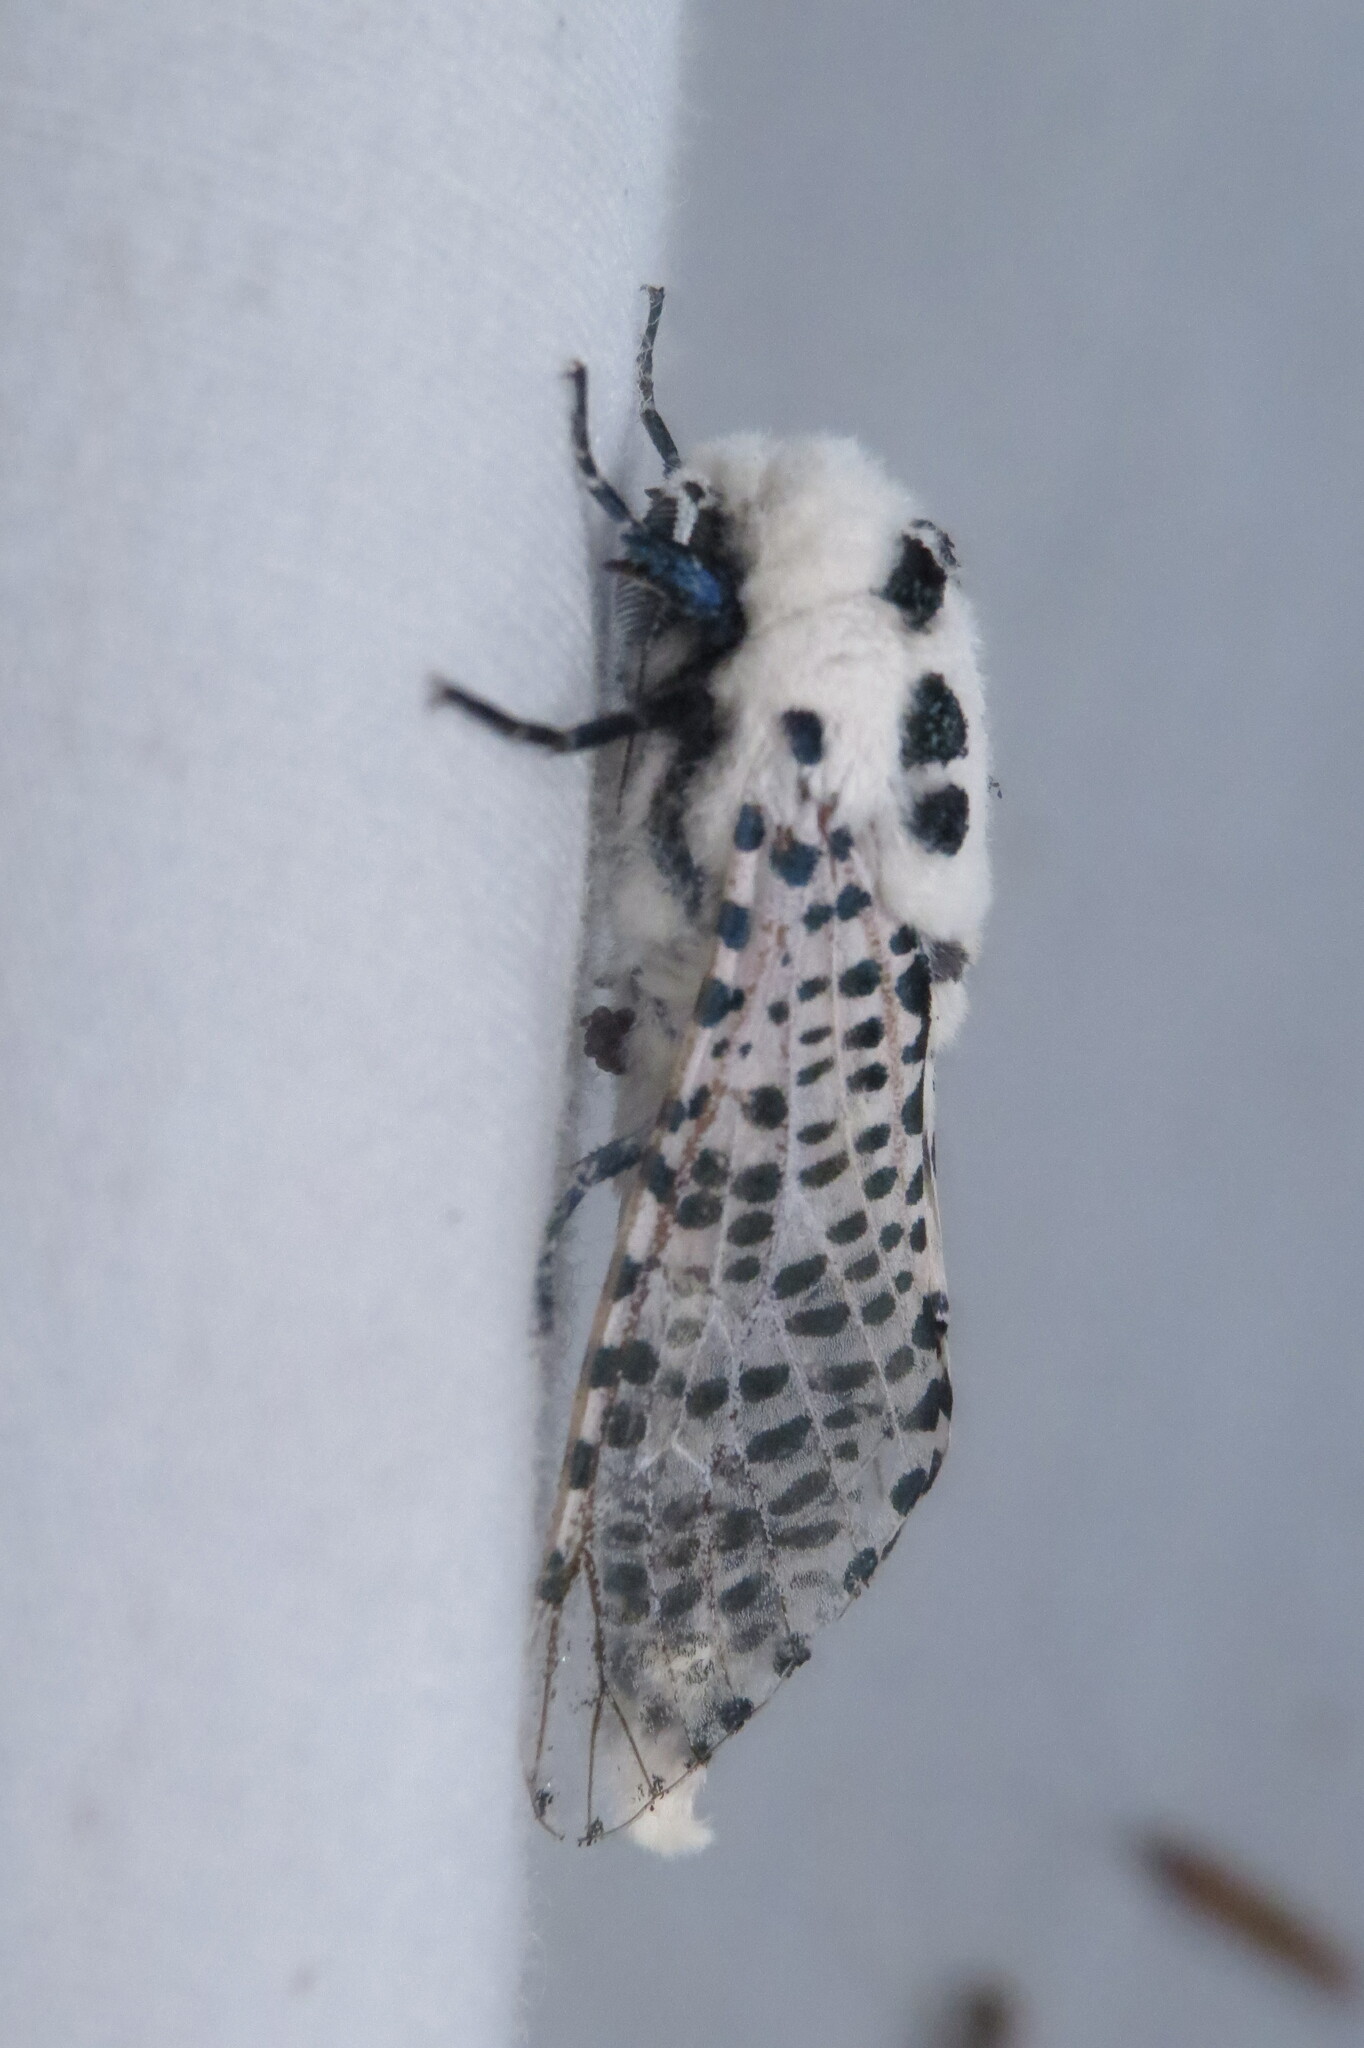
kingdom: Animalia
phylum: Arthropoda
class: Insecta
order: Lepidoptera
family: Cossidae
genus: Zeuzera
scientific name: Zeuzera pyrina
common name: Leopard moth
